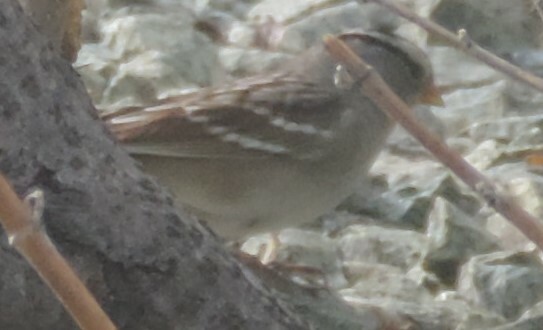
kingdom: Animalia
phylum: Chordata
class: Aves
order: Passeriformes
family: Passerellidae
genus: Zonotrichia
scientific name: Zonotrichia leucophrys
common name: White-crowned sparrow
